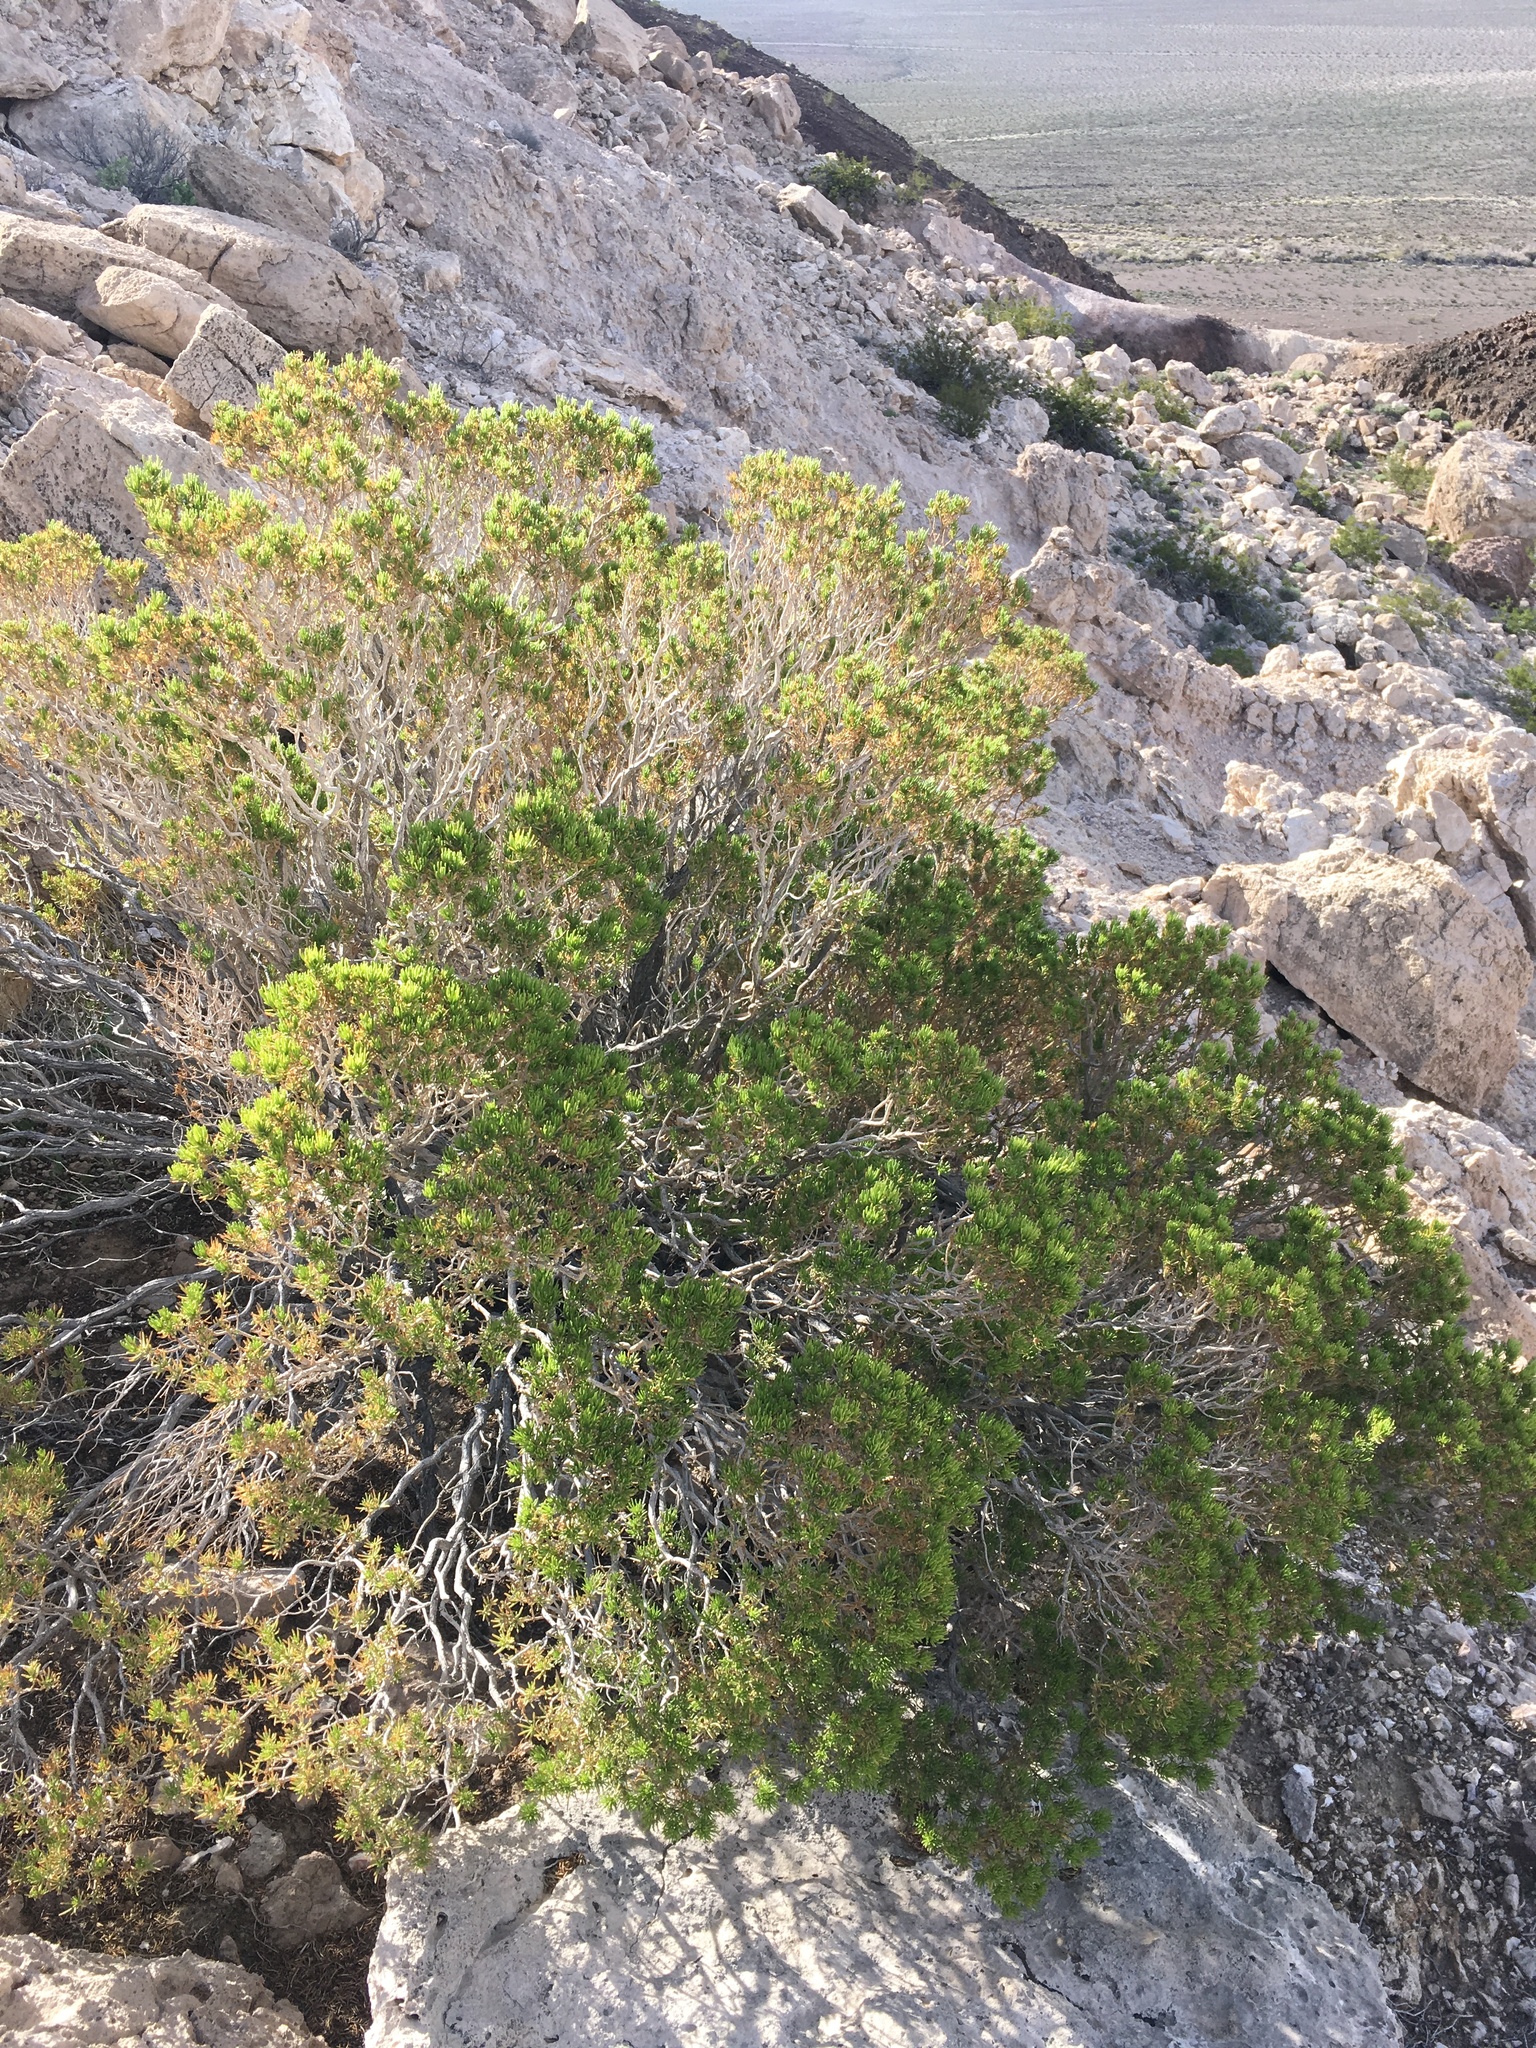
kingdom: Plantae
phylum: Tracheophyta
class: Magnoliopsida
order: Asterales
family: Asteraceae
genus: Peucephyllum
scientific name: Peucephyllum schottii
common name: Pygmy-cedar
